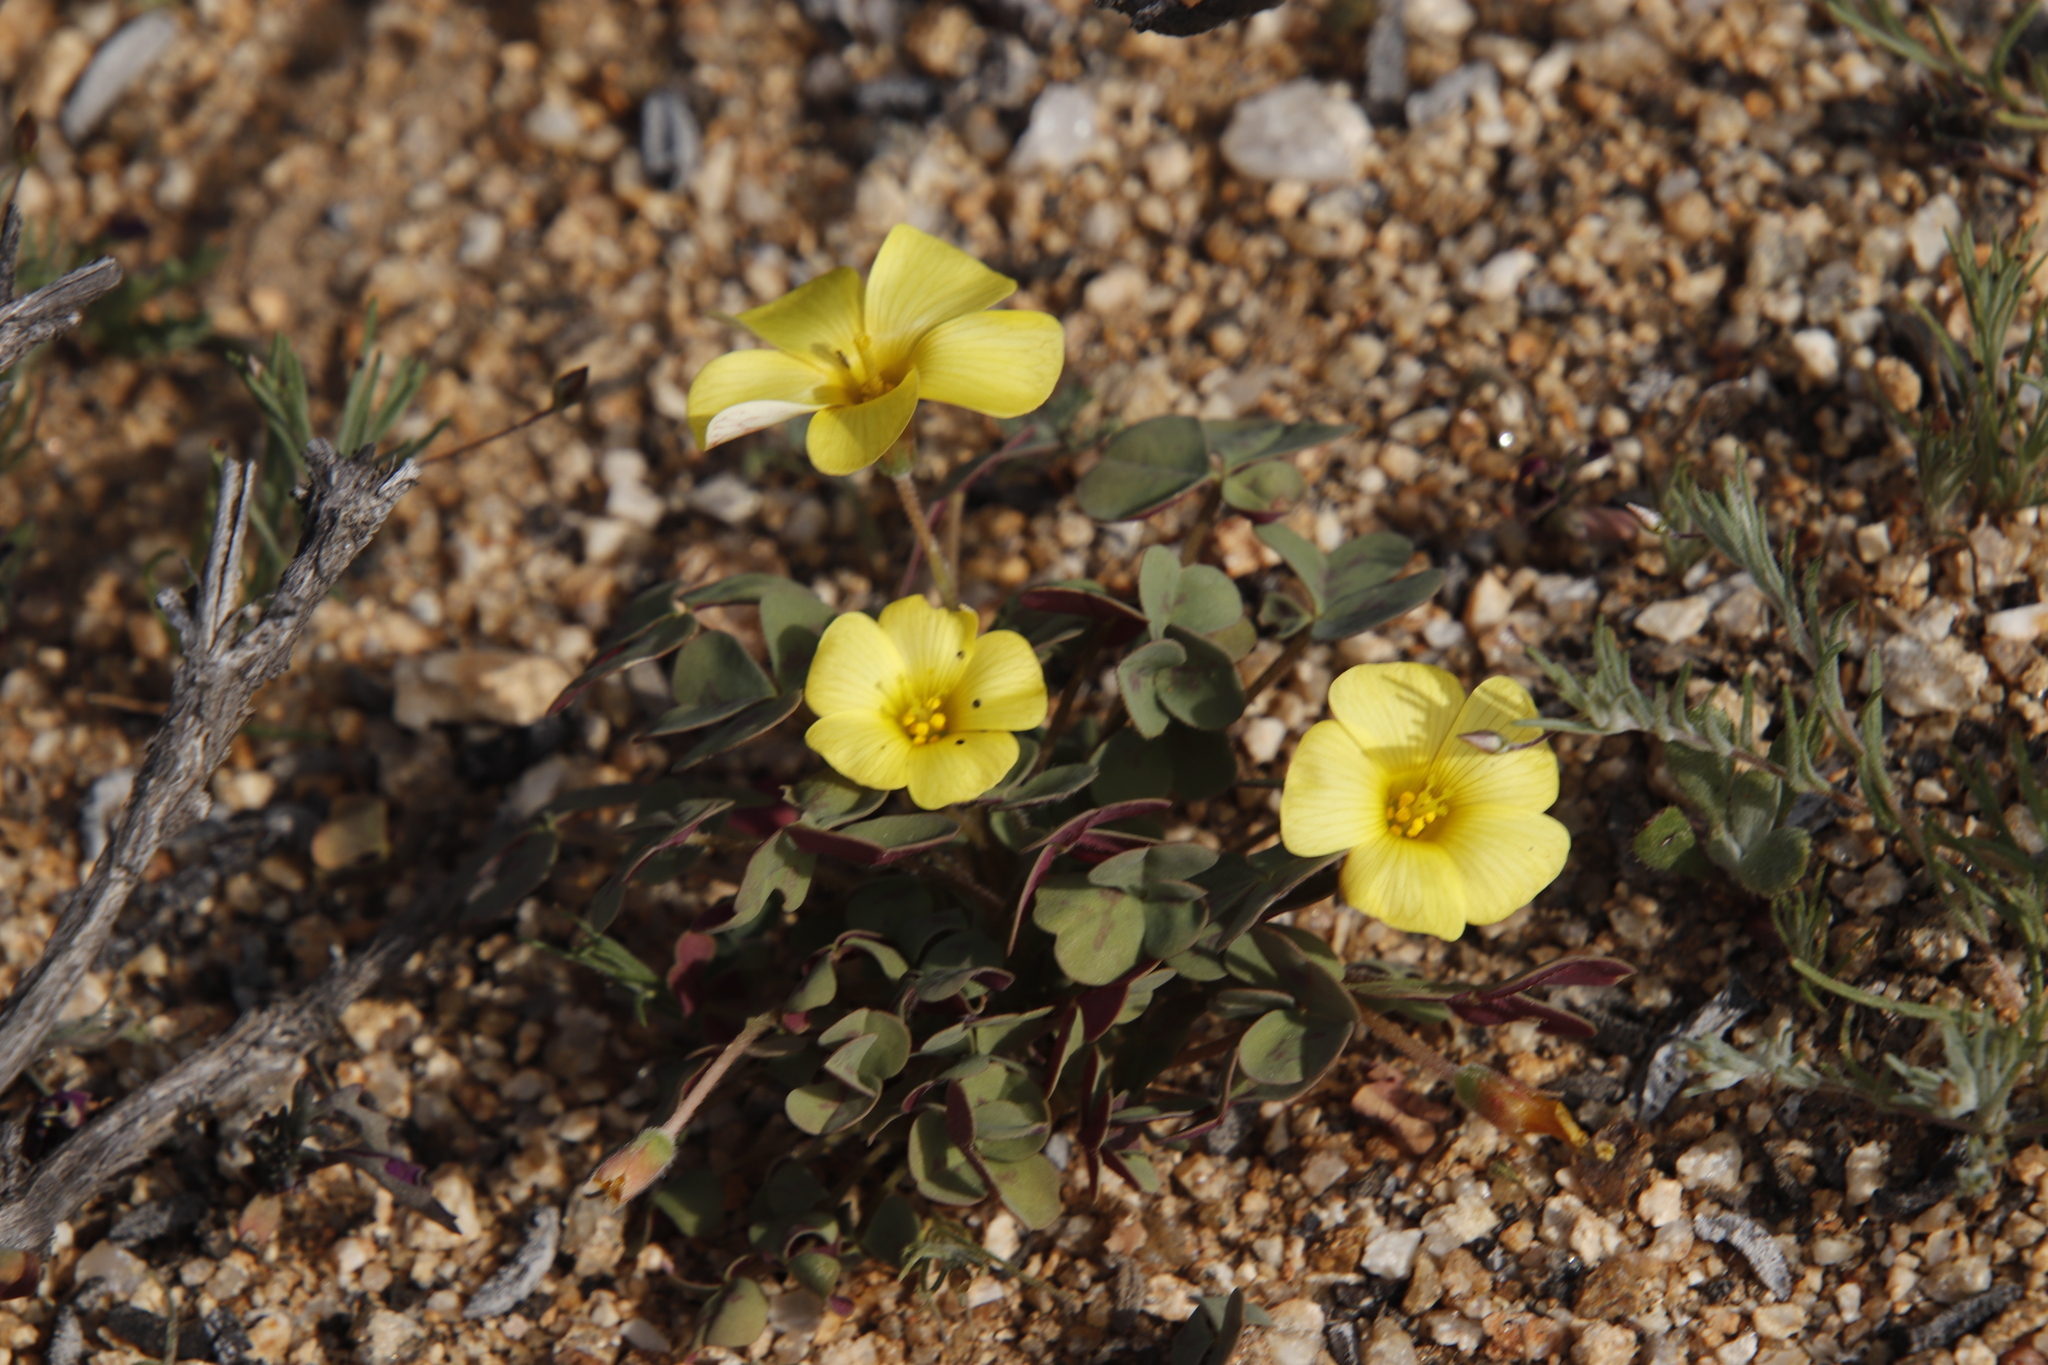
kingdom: Plantae
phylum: Tracheophyta
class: Magnoliopsida
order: Oxalidales
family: Oxalidaceae
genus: Oxalis
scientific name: Oxalis obtusa
